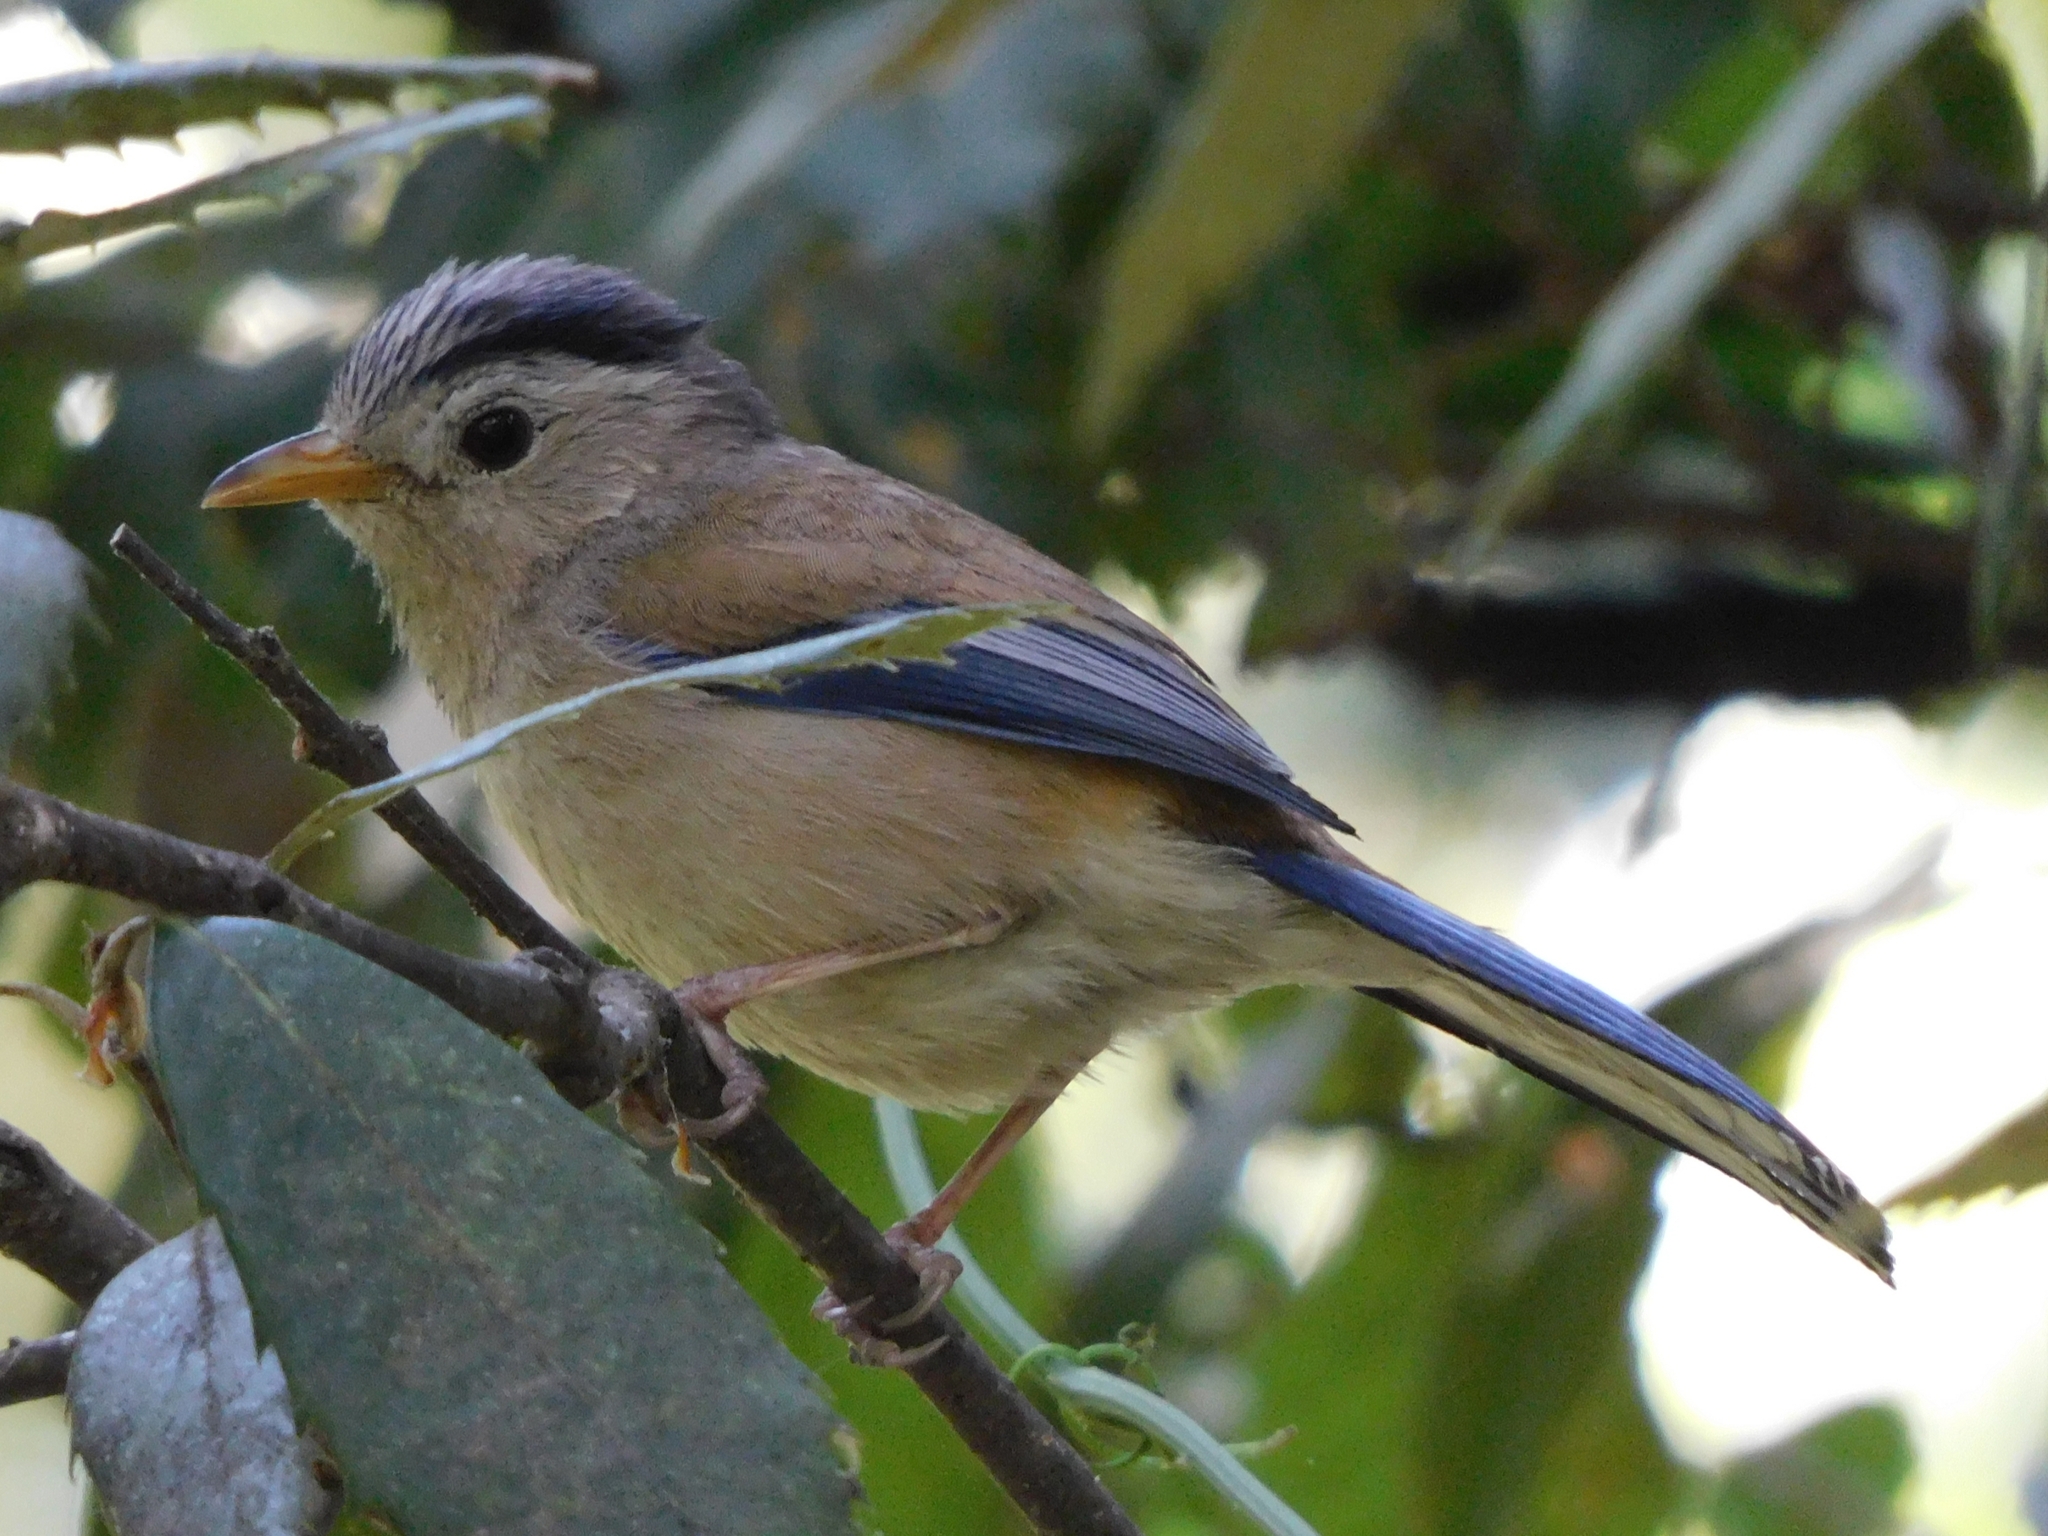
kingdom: Animalia
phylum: Chordata
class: Aves
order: Passeriformes
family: Leiothrichidae
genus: Minla
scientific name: Minla cyanouroptera
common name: Blue-winged minla
